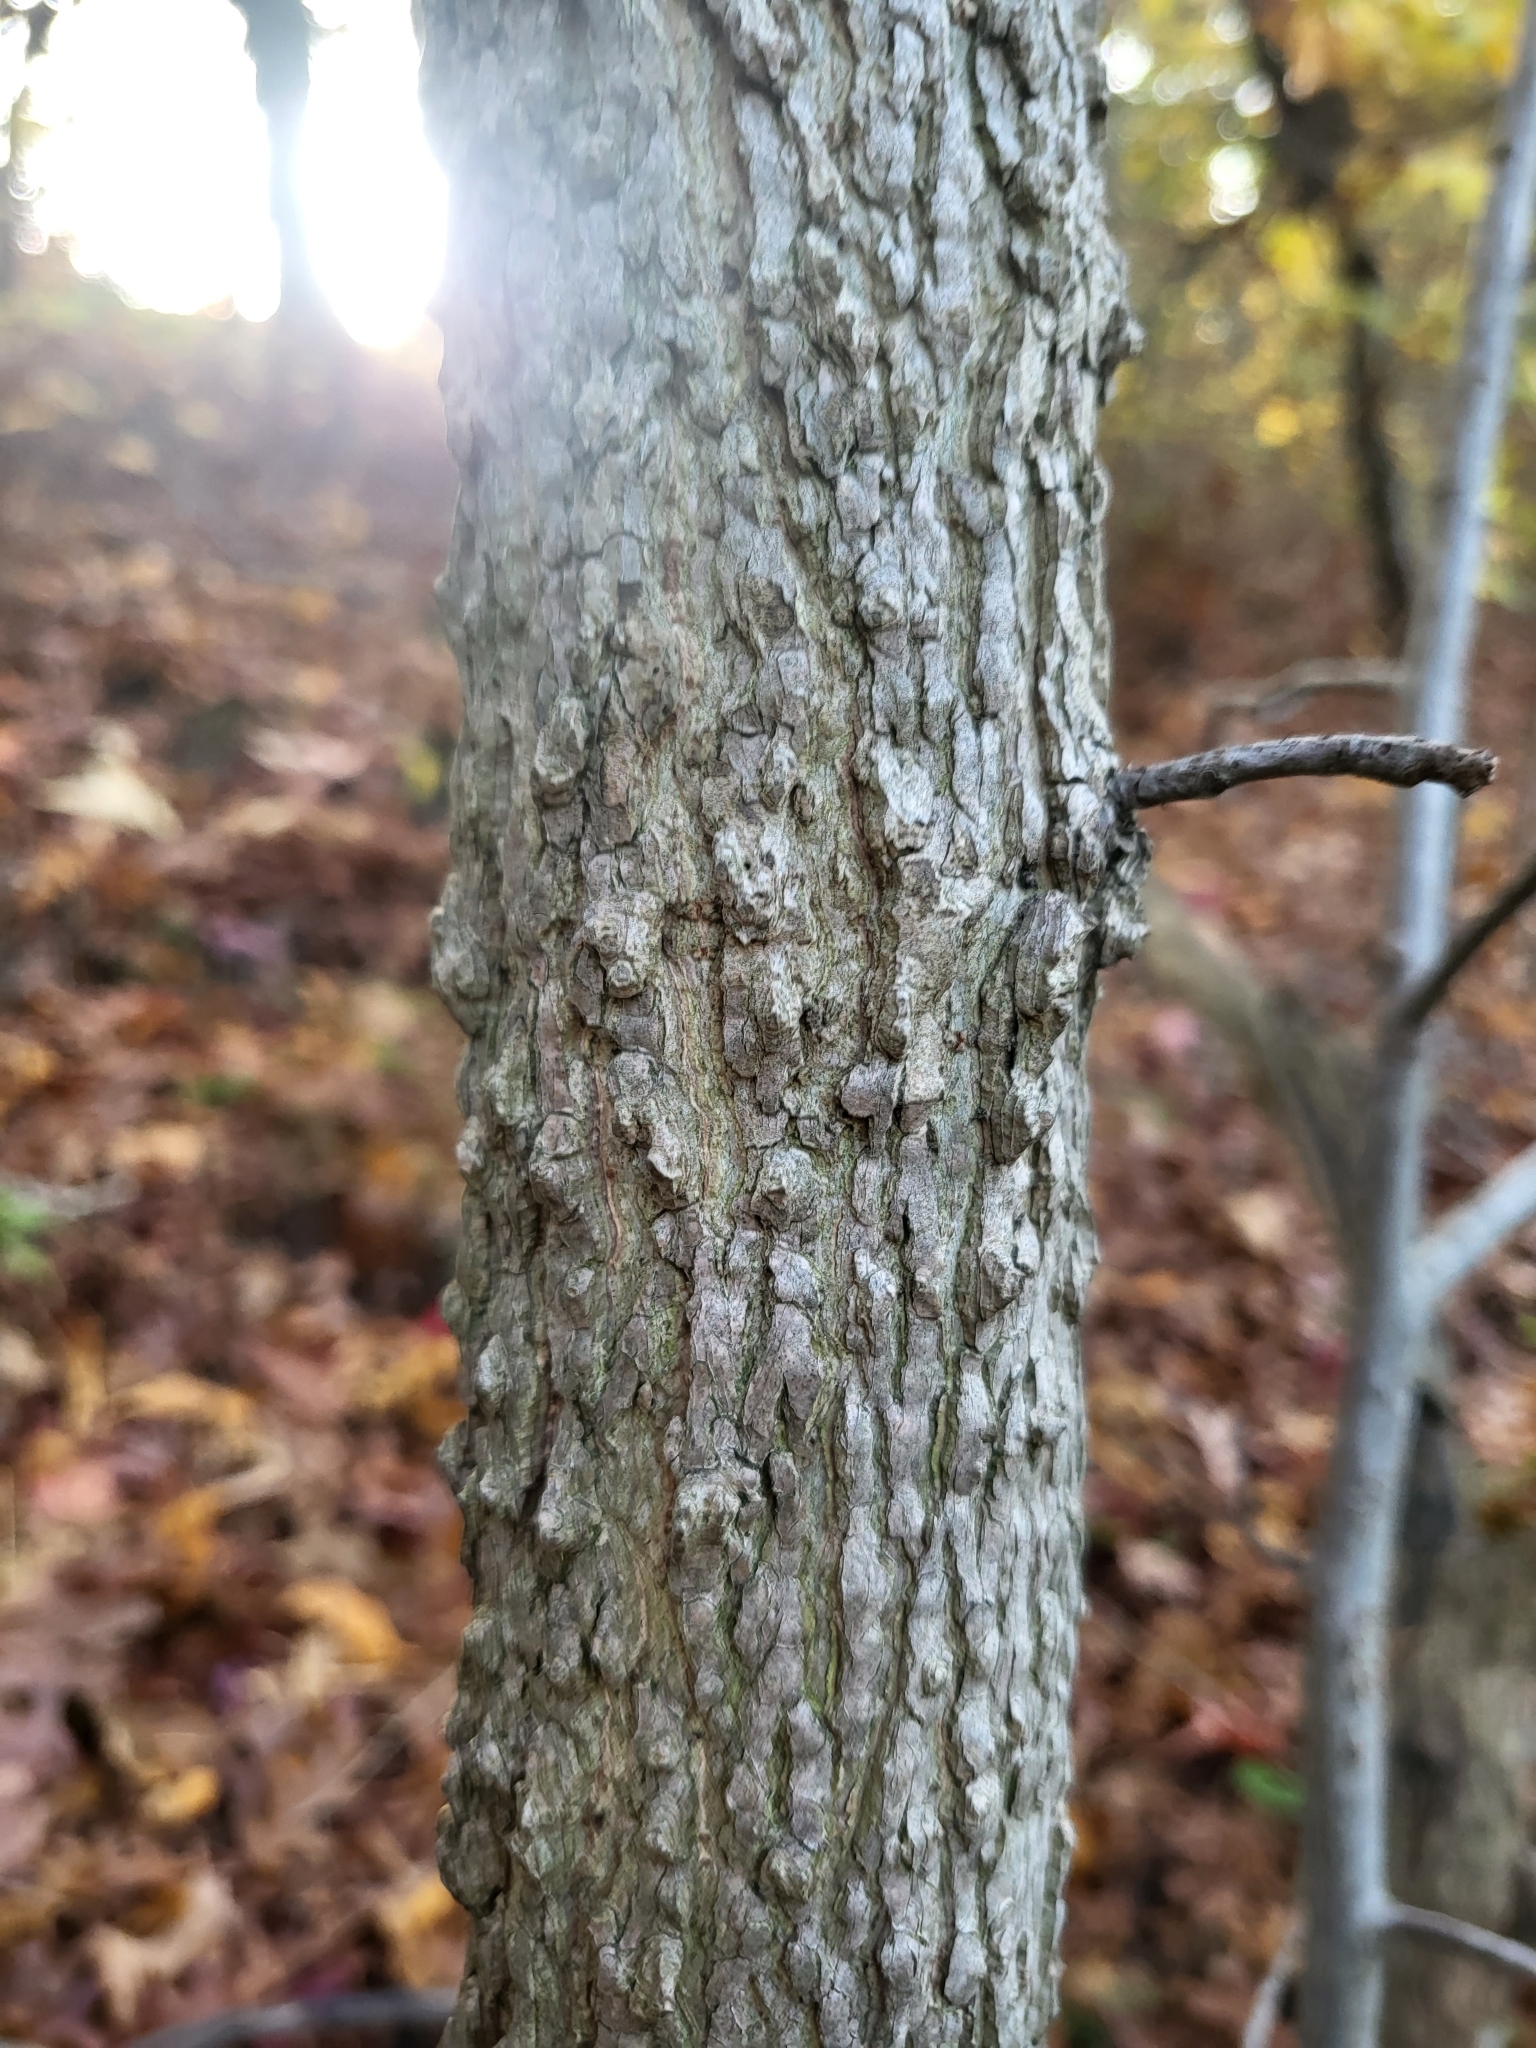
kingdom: Plantae
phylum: Tracheophyta
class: Magnoliopsida
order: Saxifragales
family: Altingiaceae
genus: Liquidambar
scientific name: Liquidambar styraciflua
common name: Sweet gum
